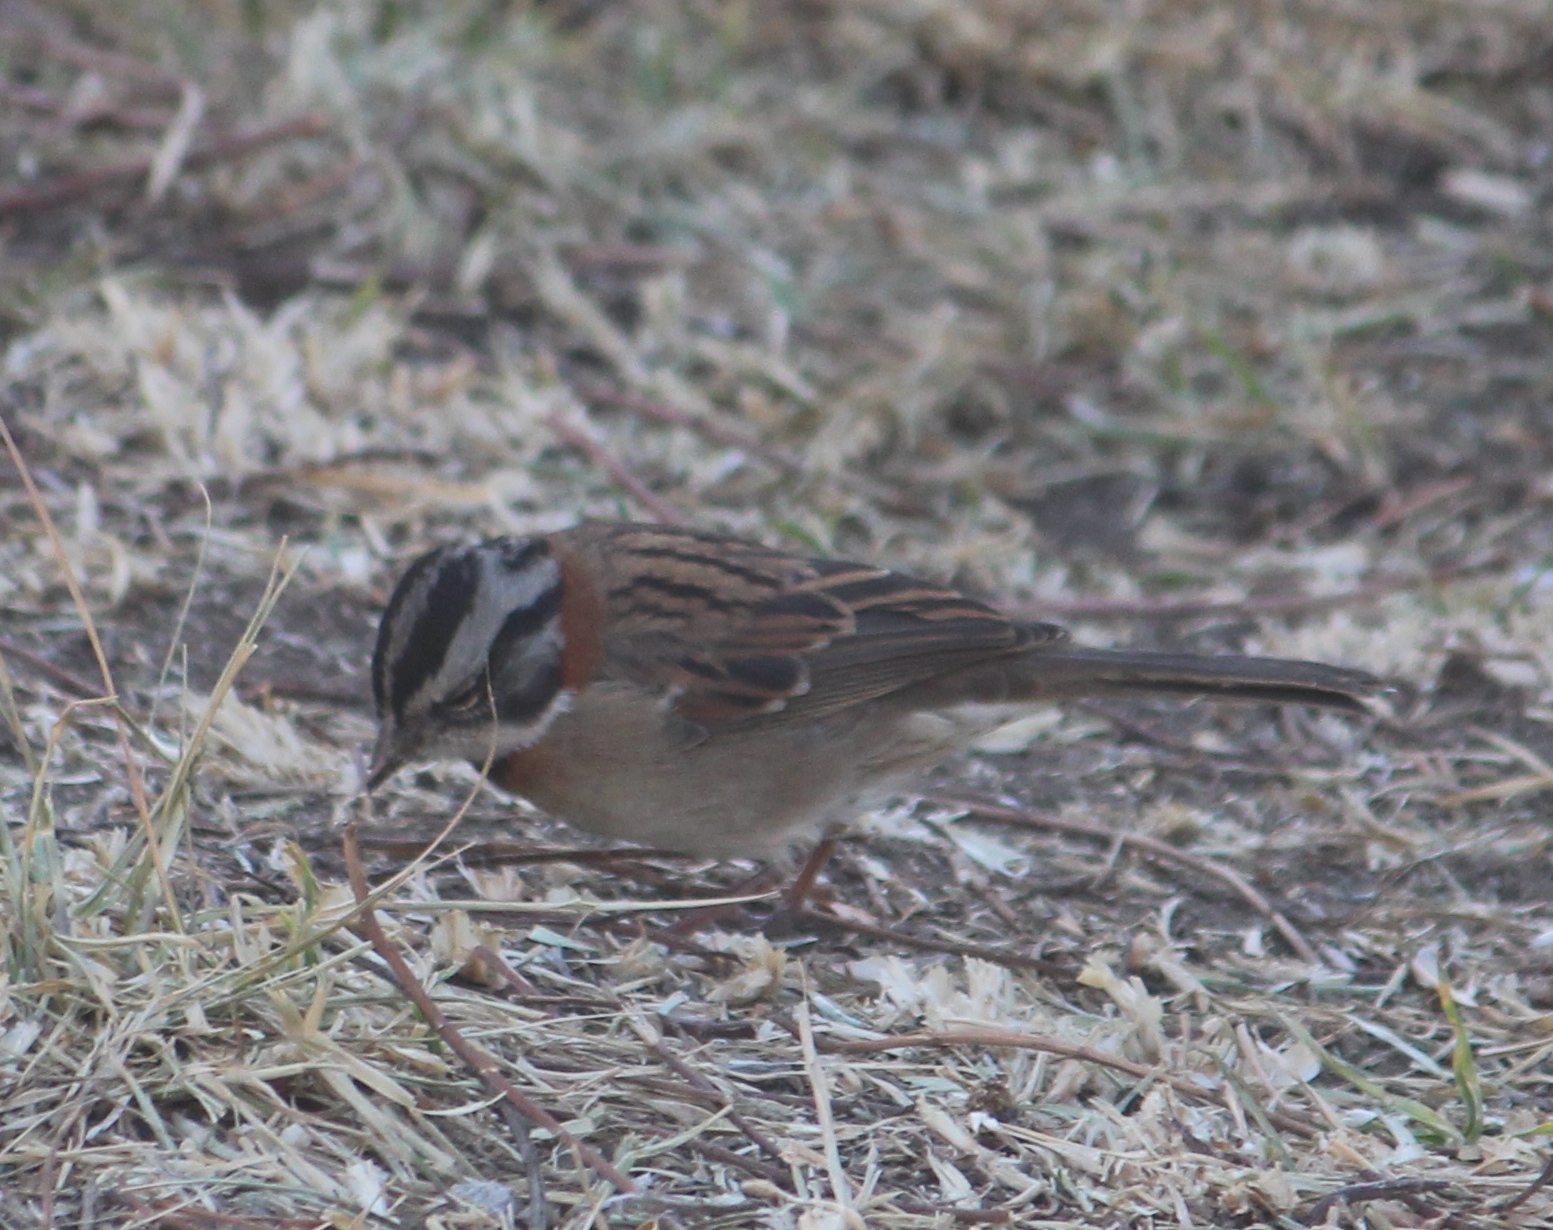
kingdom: Animalia
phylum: Chordata
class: Aves
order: Passeriformes
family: Passerellidae
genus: Zonotrichia
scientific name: Zonotrichia capensis
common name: Rufous-collared sparrow
